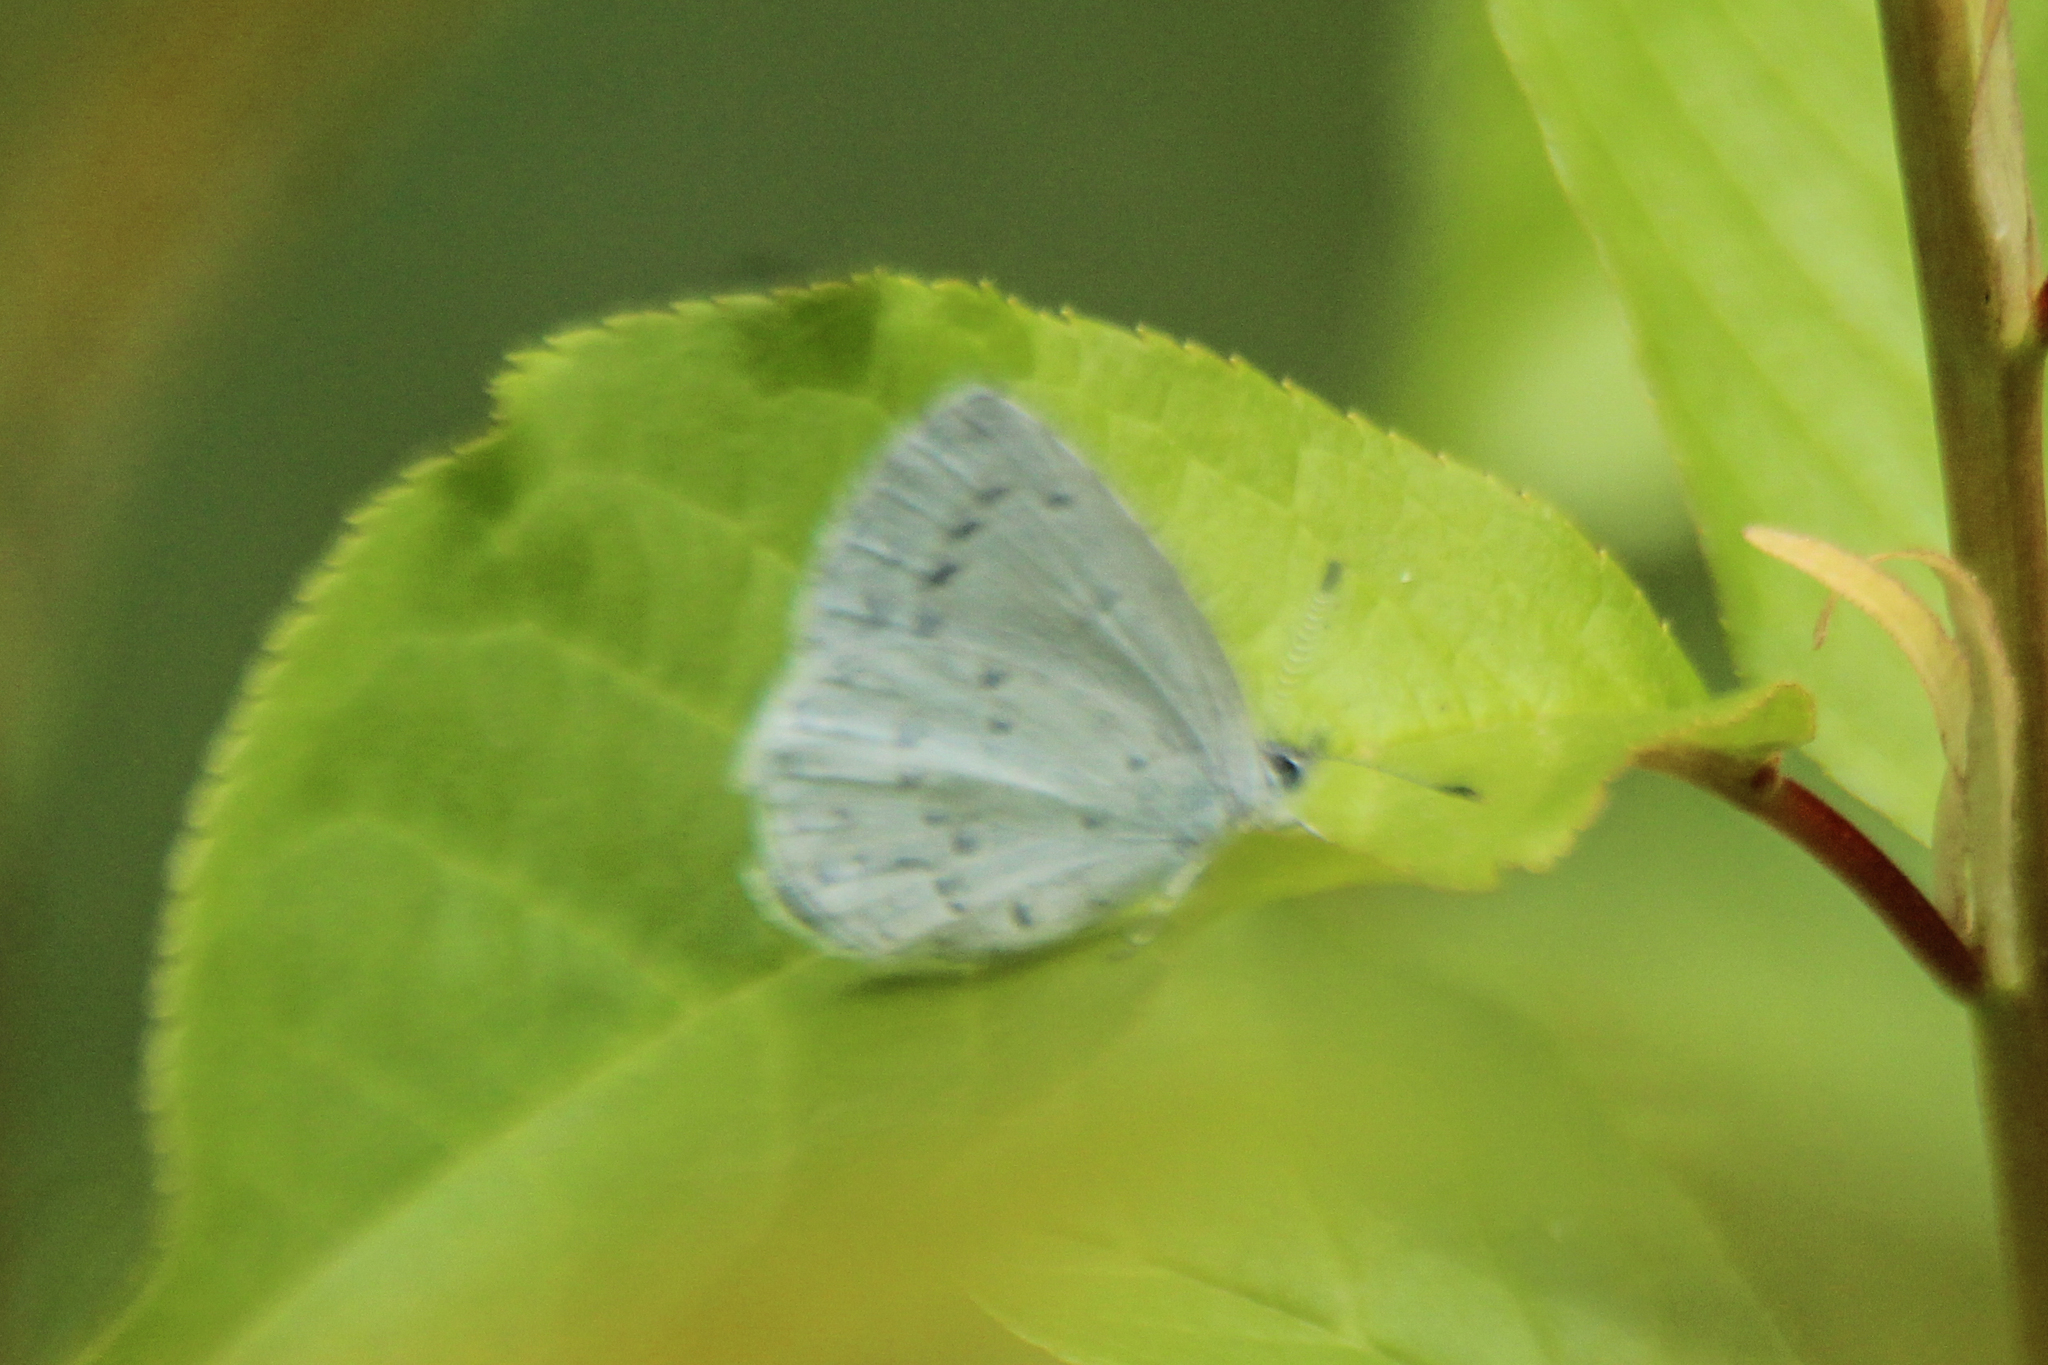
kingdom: Animalia
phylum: Arthropoda
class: Insecta
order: Lepidoptera
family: Lycaenidae
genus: Celastrina
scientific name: Celastrina argiolus
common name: Holly blue
